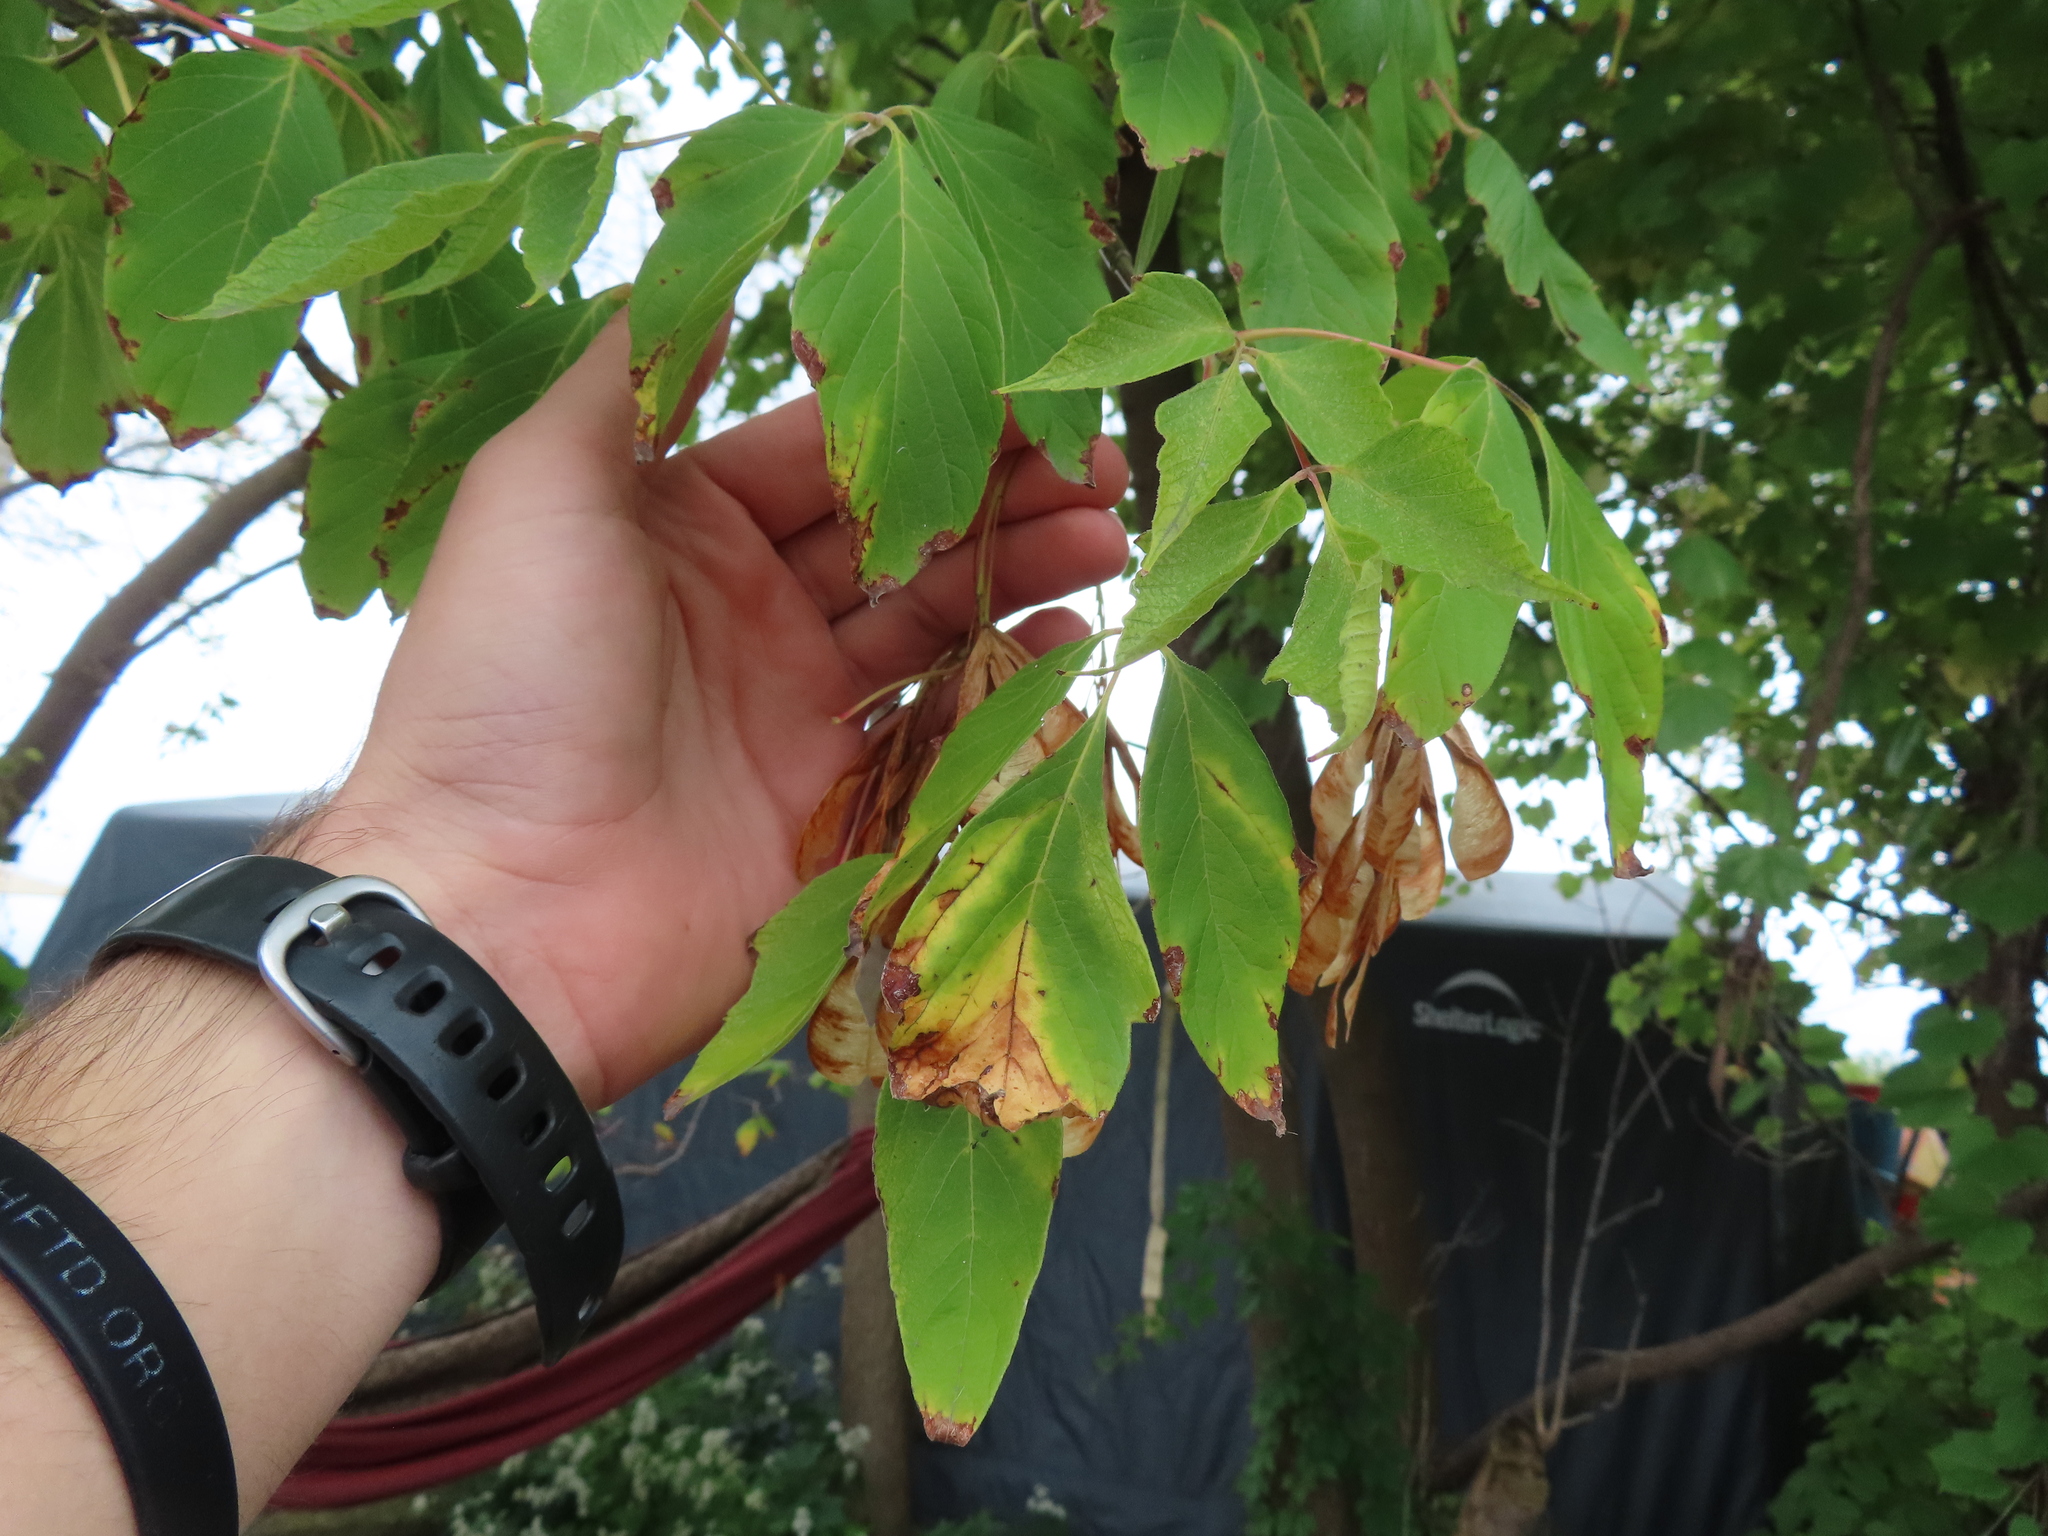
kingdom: Plantae
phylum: Tracheophyta
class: Magnoliopsida
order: Sapindales
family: Sapindaceae
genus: Acer
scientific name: Acer negundo
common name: Ashleaf maple
